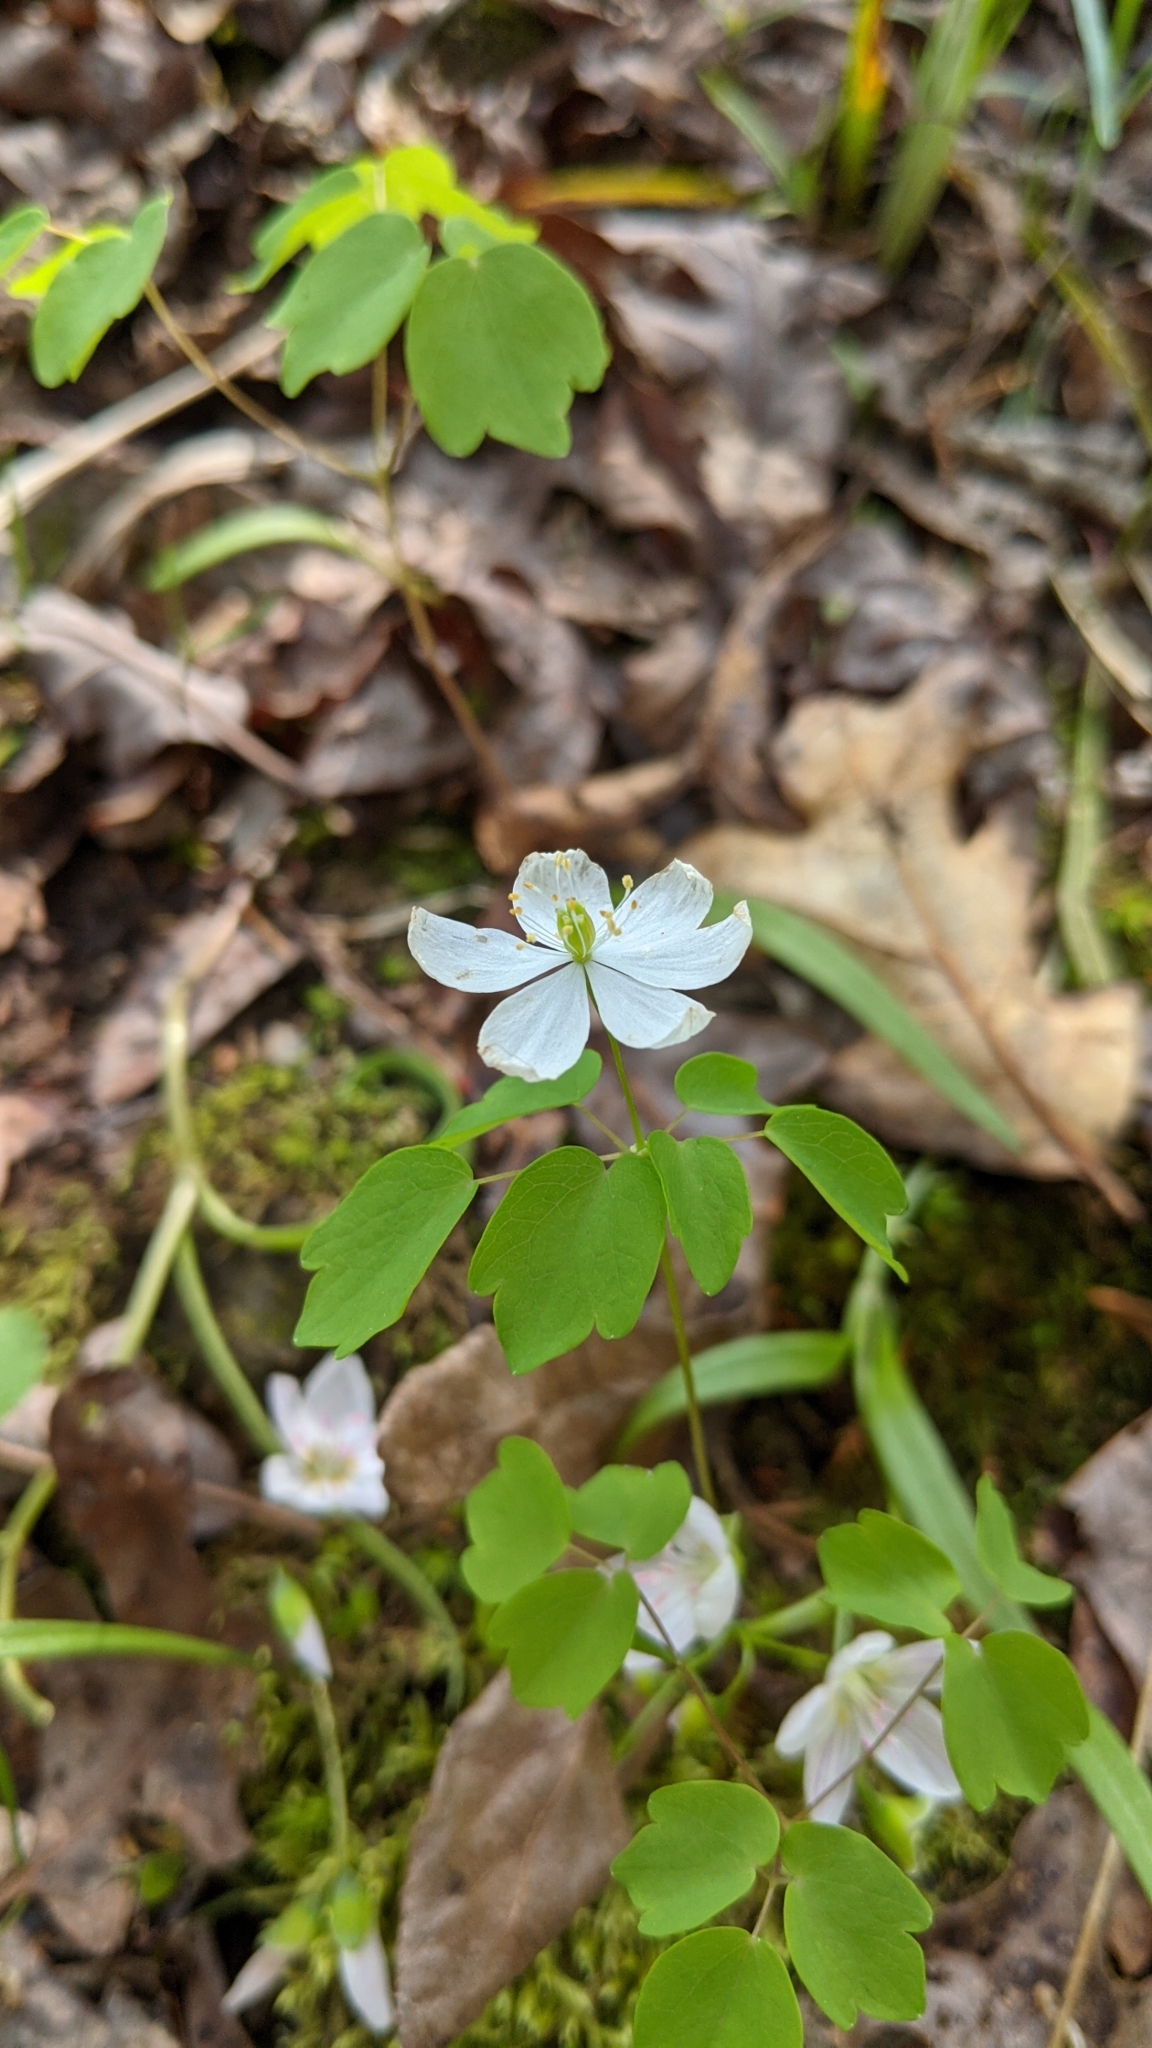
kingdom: Plantae
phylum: Tracheophyta
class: Magnoliopsida
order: Caryophyllales
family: Montiaceae
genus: Claytonia
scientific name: Claytonia virginica
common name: Virginia springbeauty
